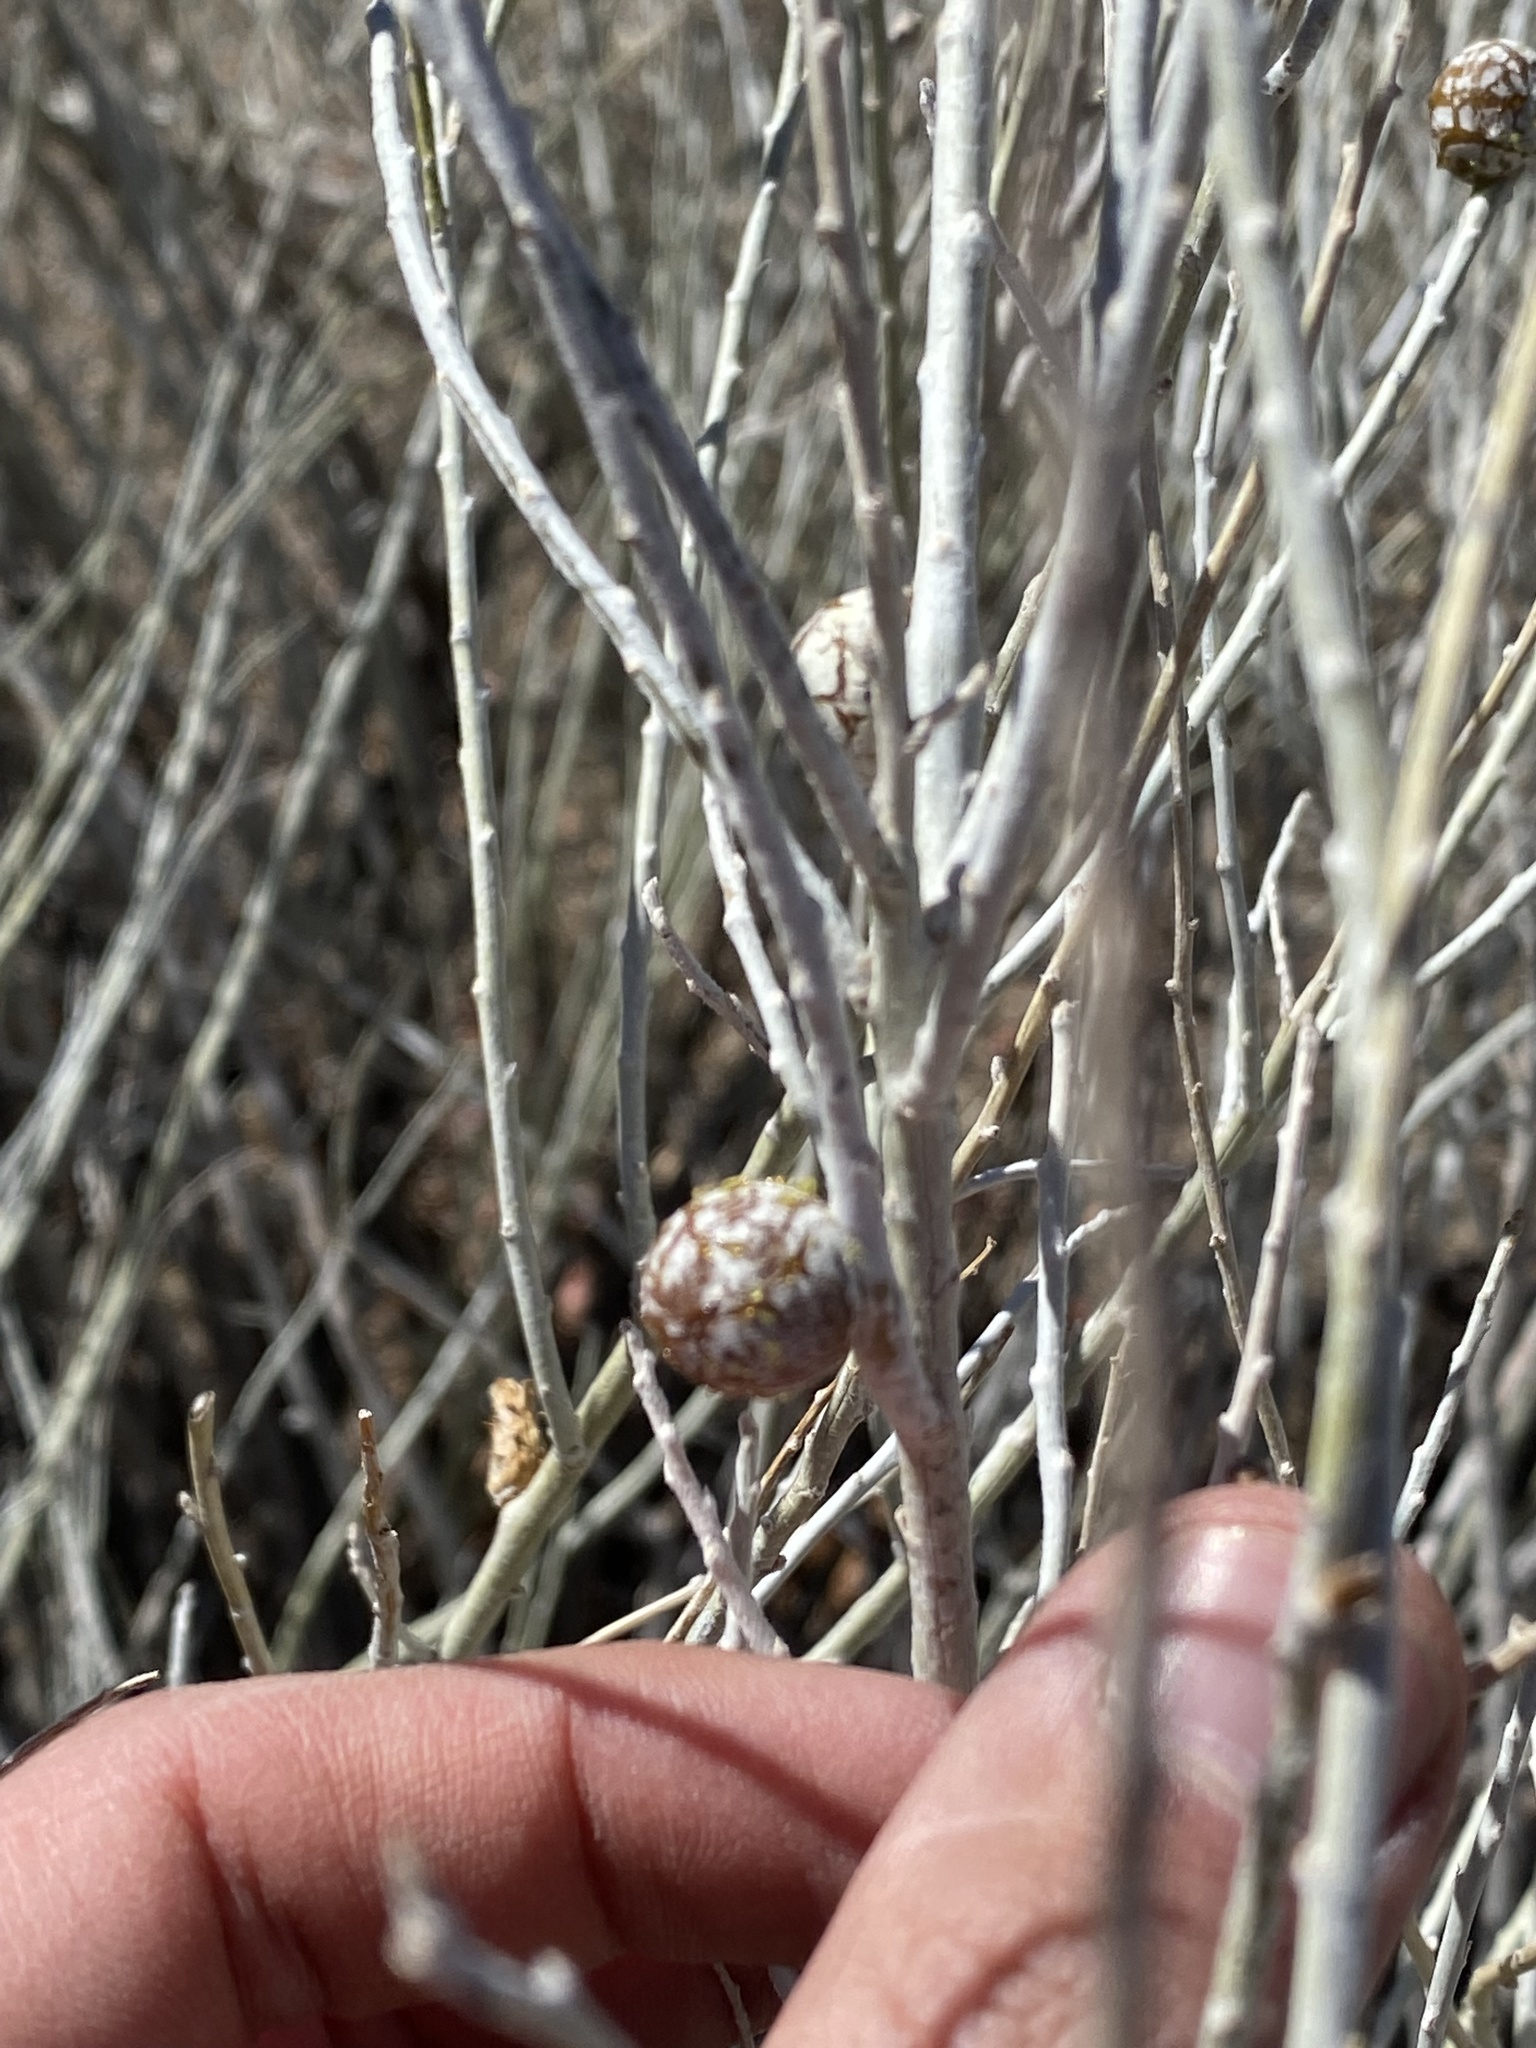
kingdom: Animalia
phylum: Arthropoda
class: Insecta
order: Diptera
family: Tephritidae
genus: Aciurina
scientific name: Aciurina trixa
